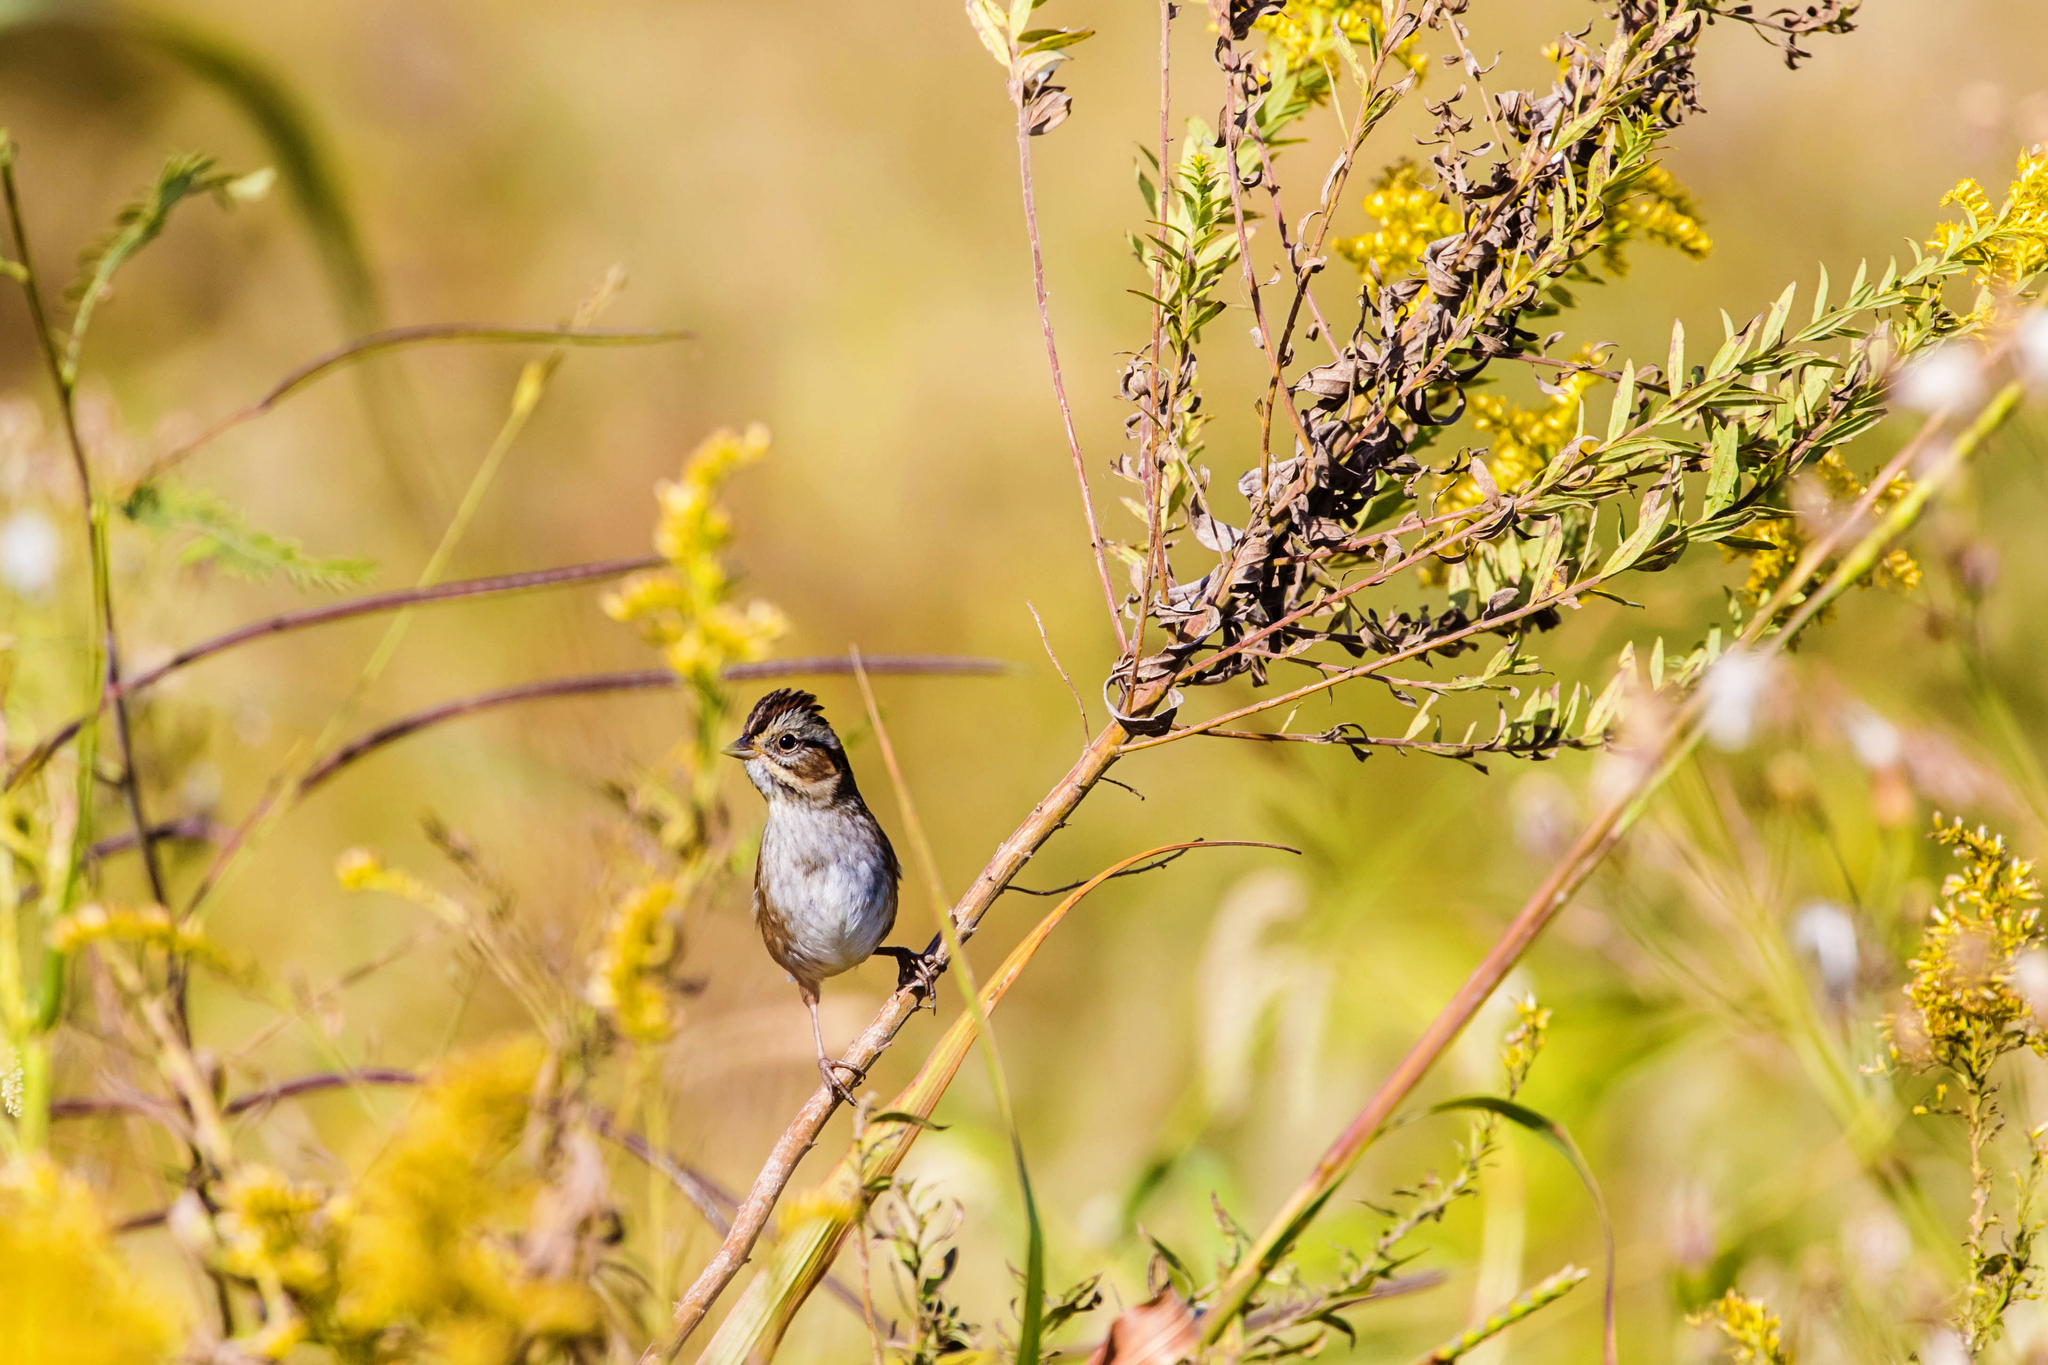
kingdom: Animalia
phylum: Chordata
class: Aves
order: Passeriformes
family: Passerellidae
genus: Melospiza
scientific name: Melospiza georgiana
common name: Swamp sparrow
